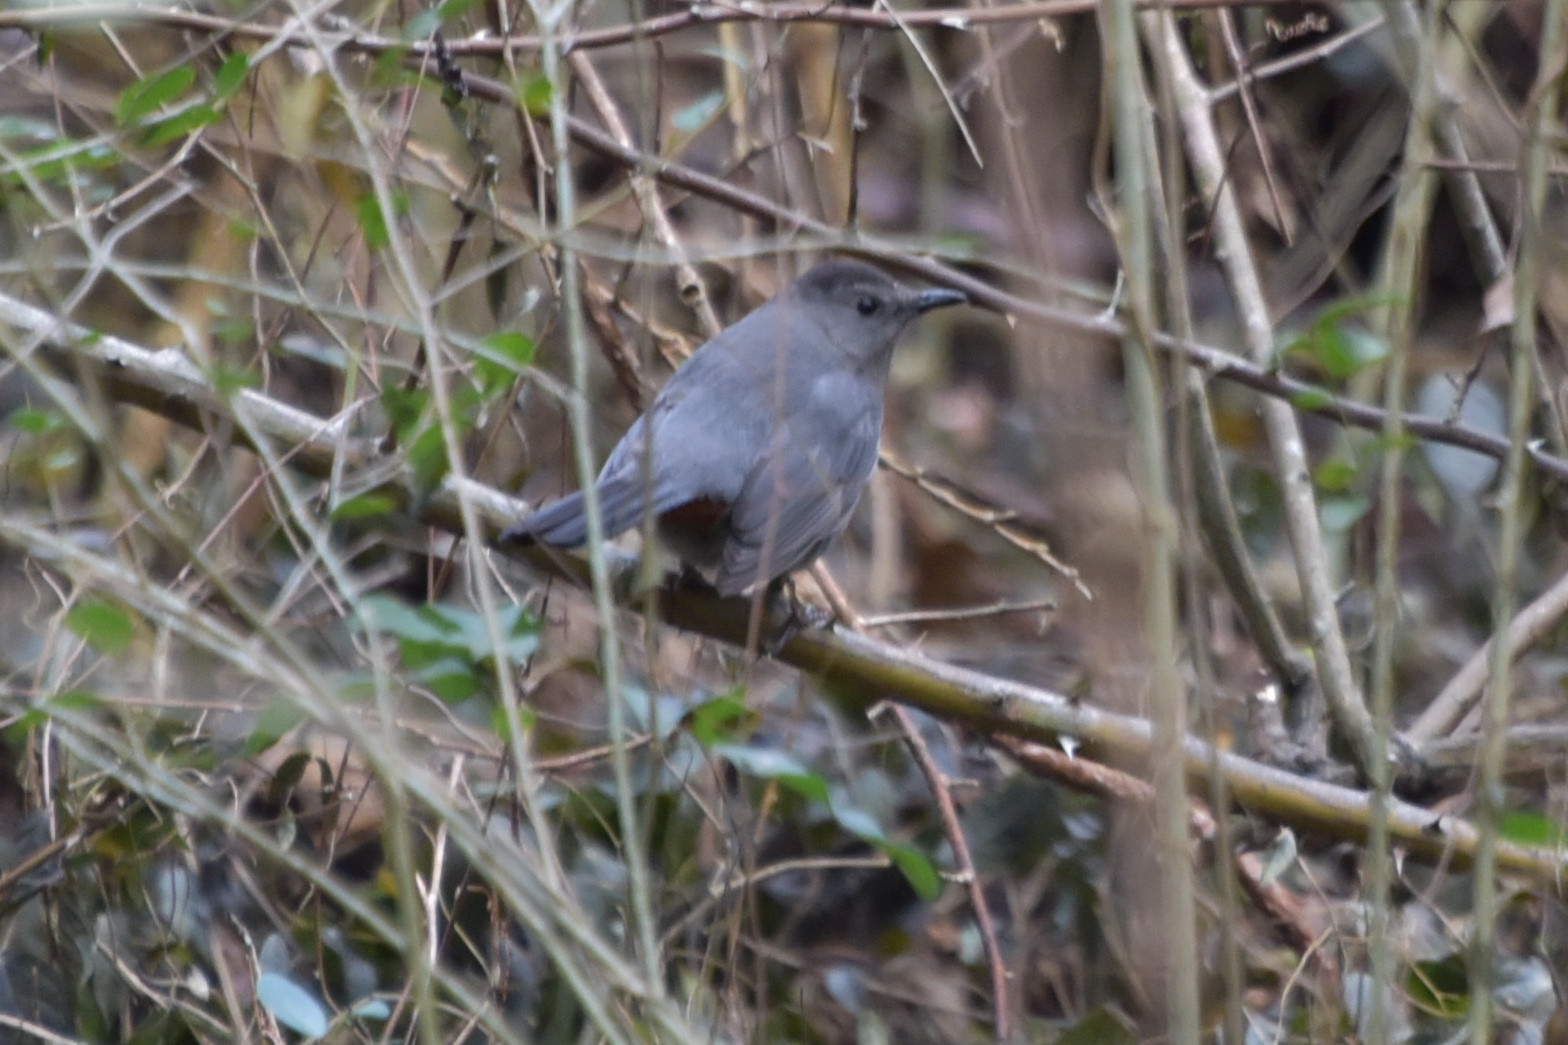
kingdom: Animalia
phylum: Chordata
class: Aves
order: Passeriformes
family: Mimidae
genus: Dumetella
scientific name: Dumetella carolinensis
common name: Gray catbird
